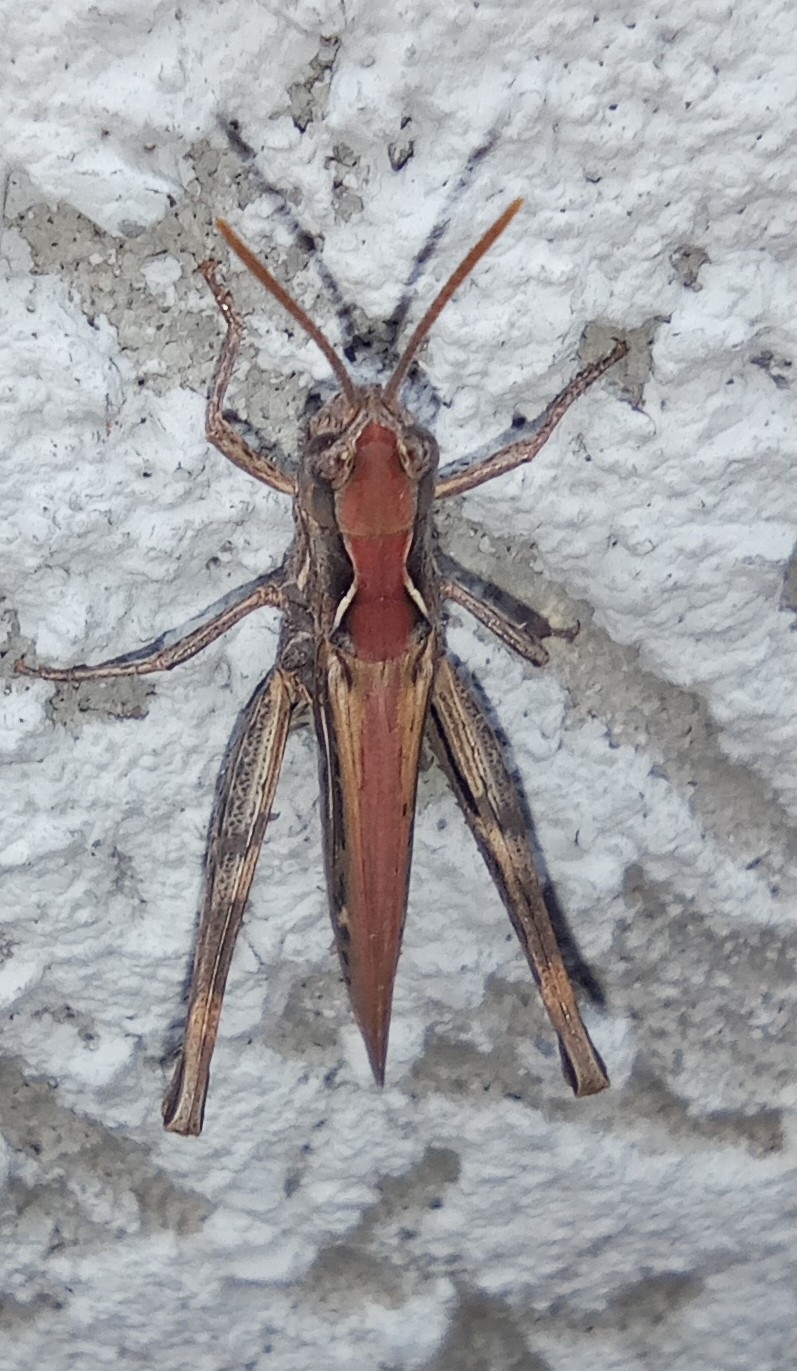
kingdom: Animalia
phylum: Arthropoda
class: Insecta
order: Orthoptera
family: Acrididae
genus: Chorthippus
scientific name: Chorthippus brunneus
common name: Field grasshopper
